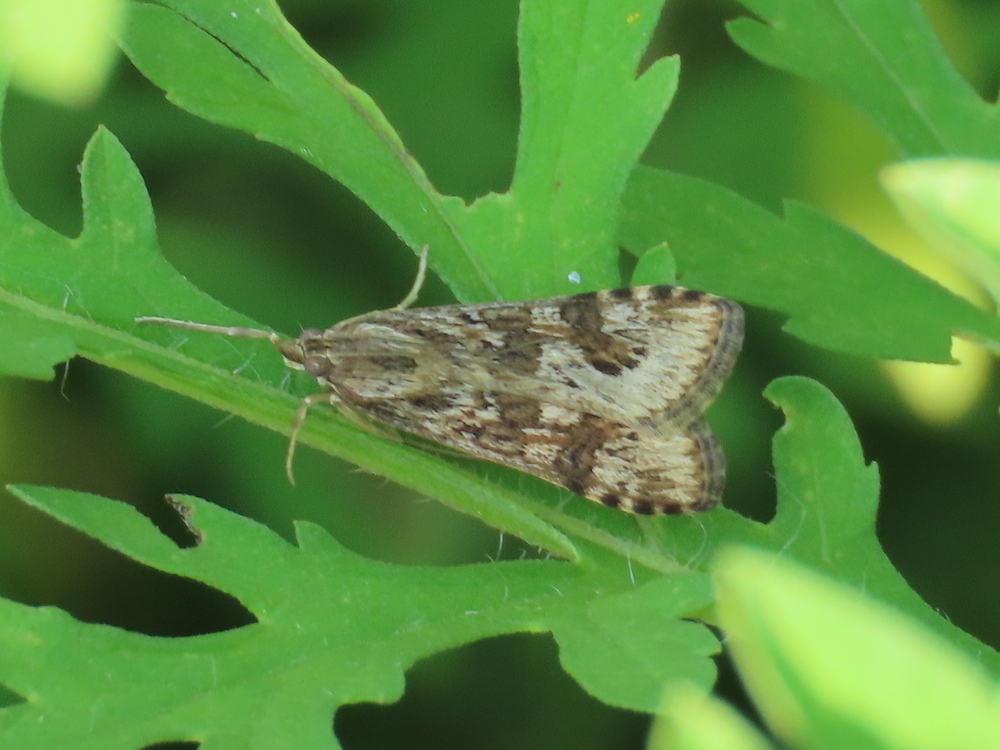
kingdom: Animalia
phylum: Arthropoda
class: Insecta
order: Lepidoptera
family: Crambidae
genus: Nomophila
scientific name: Nomophila nearctica
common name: American rush veneer
